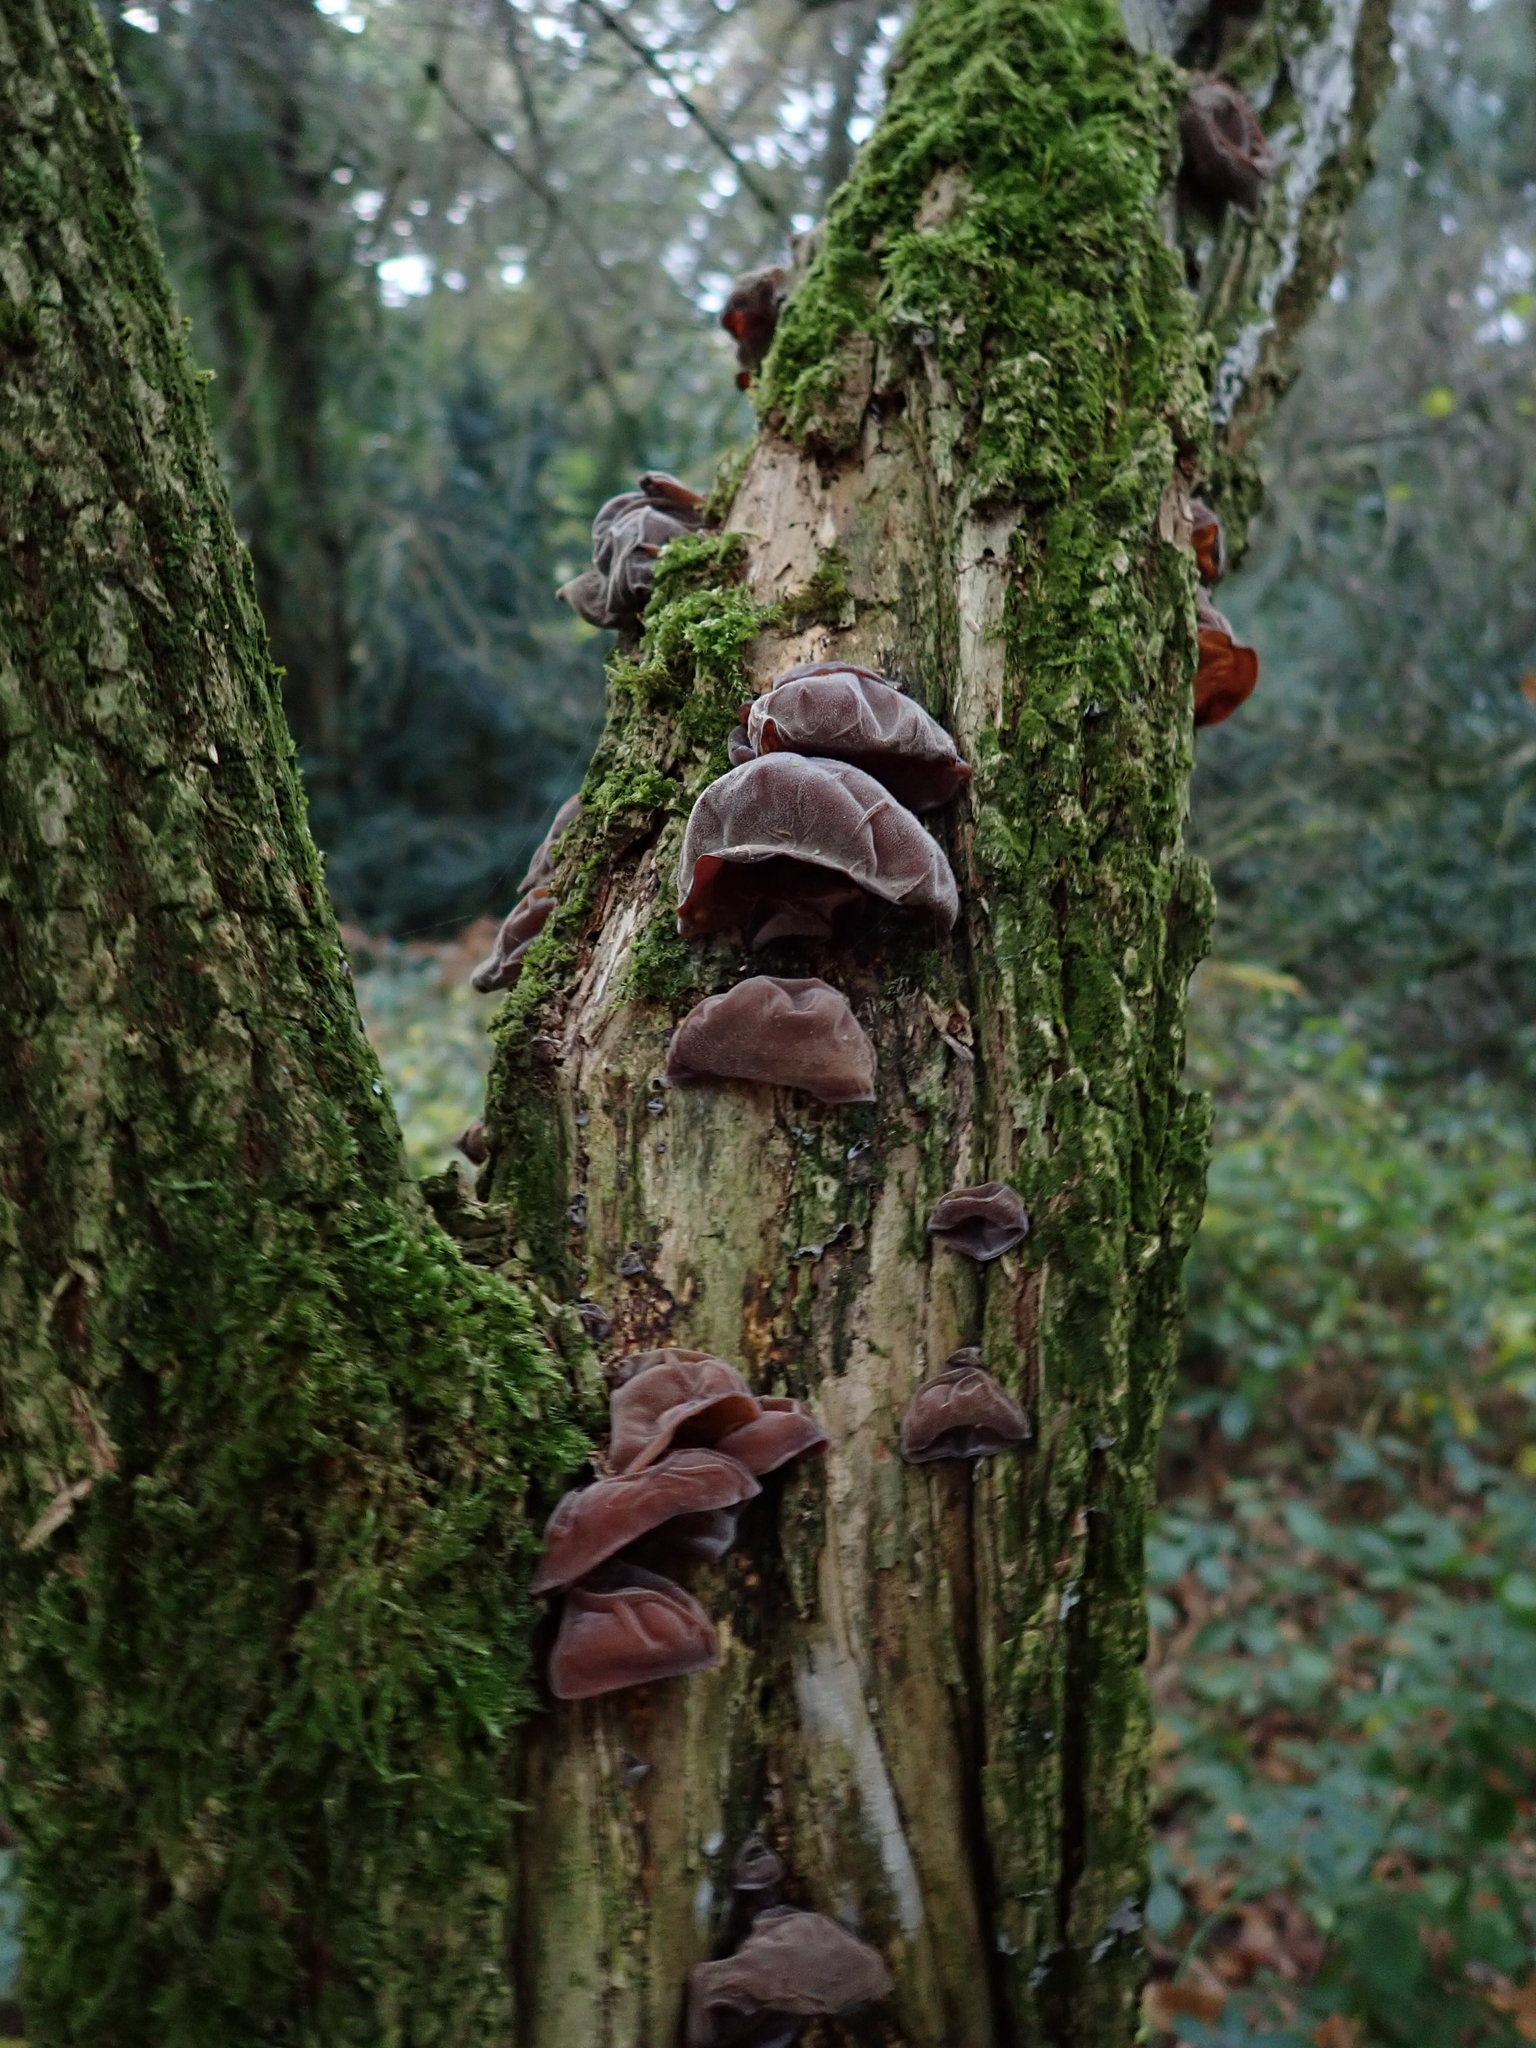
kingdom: Fungi
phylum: Basidiomycota
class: Agaricomycetes
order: Auriculariales
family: Auriculariaceae
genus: Auricularia
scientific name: Auricularia auricula-judae
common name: Jelly ear
